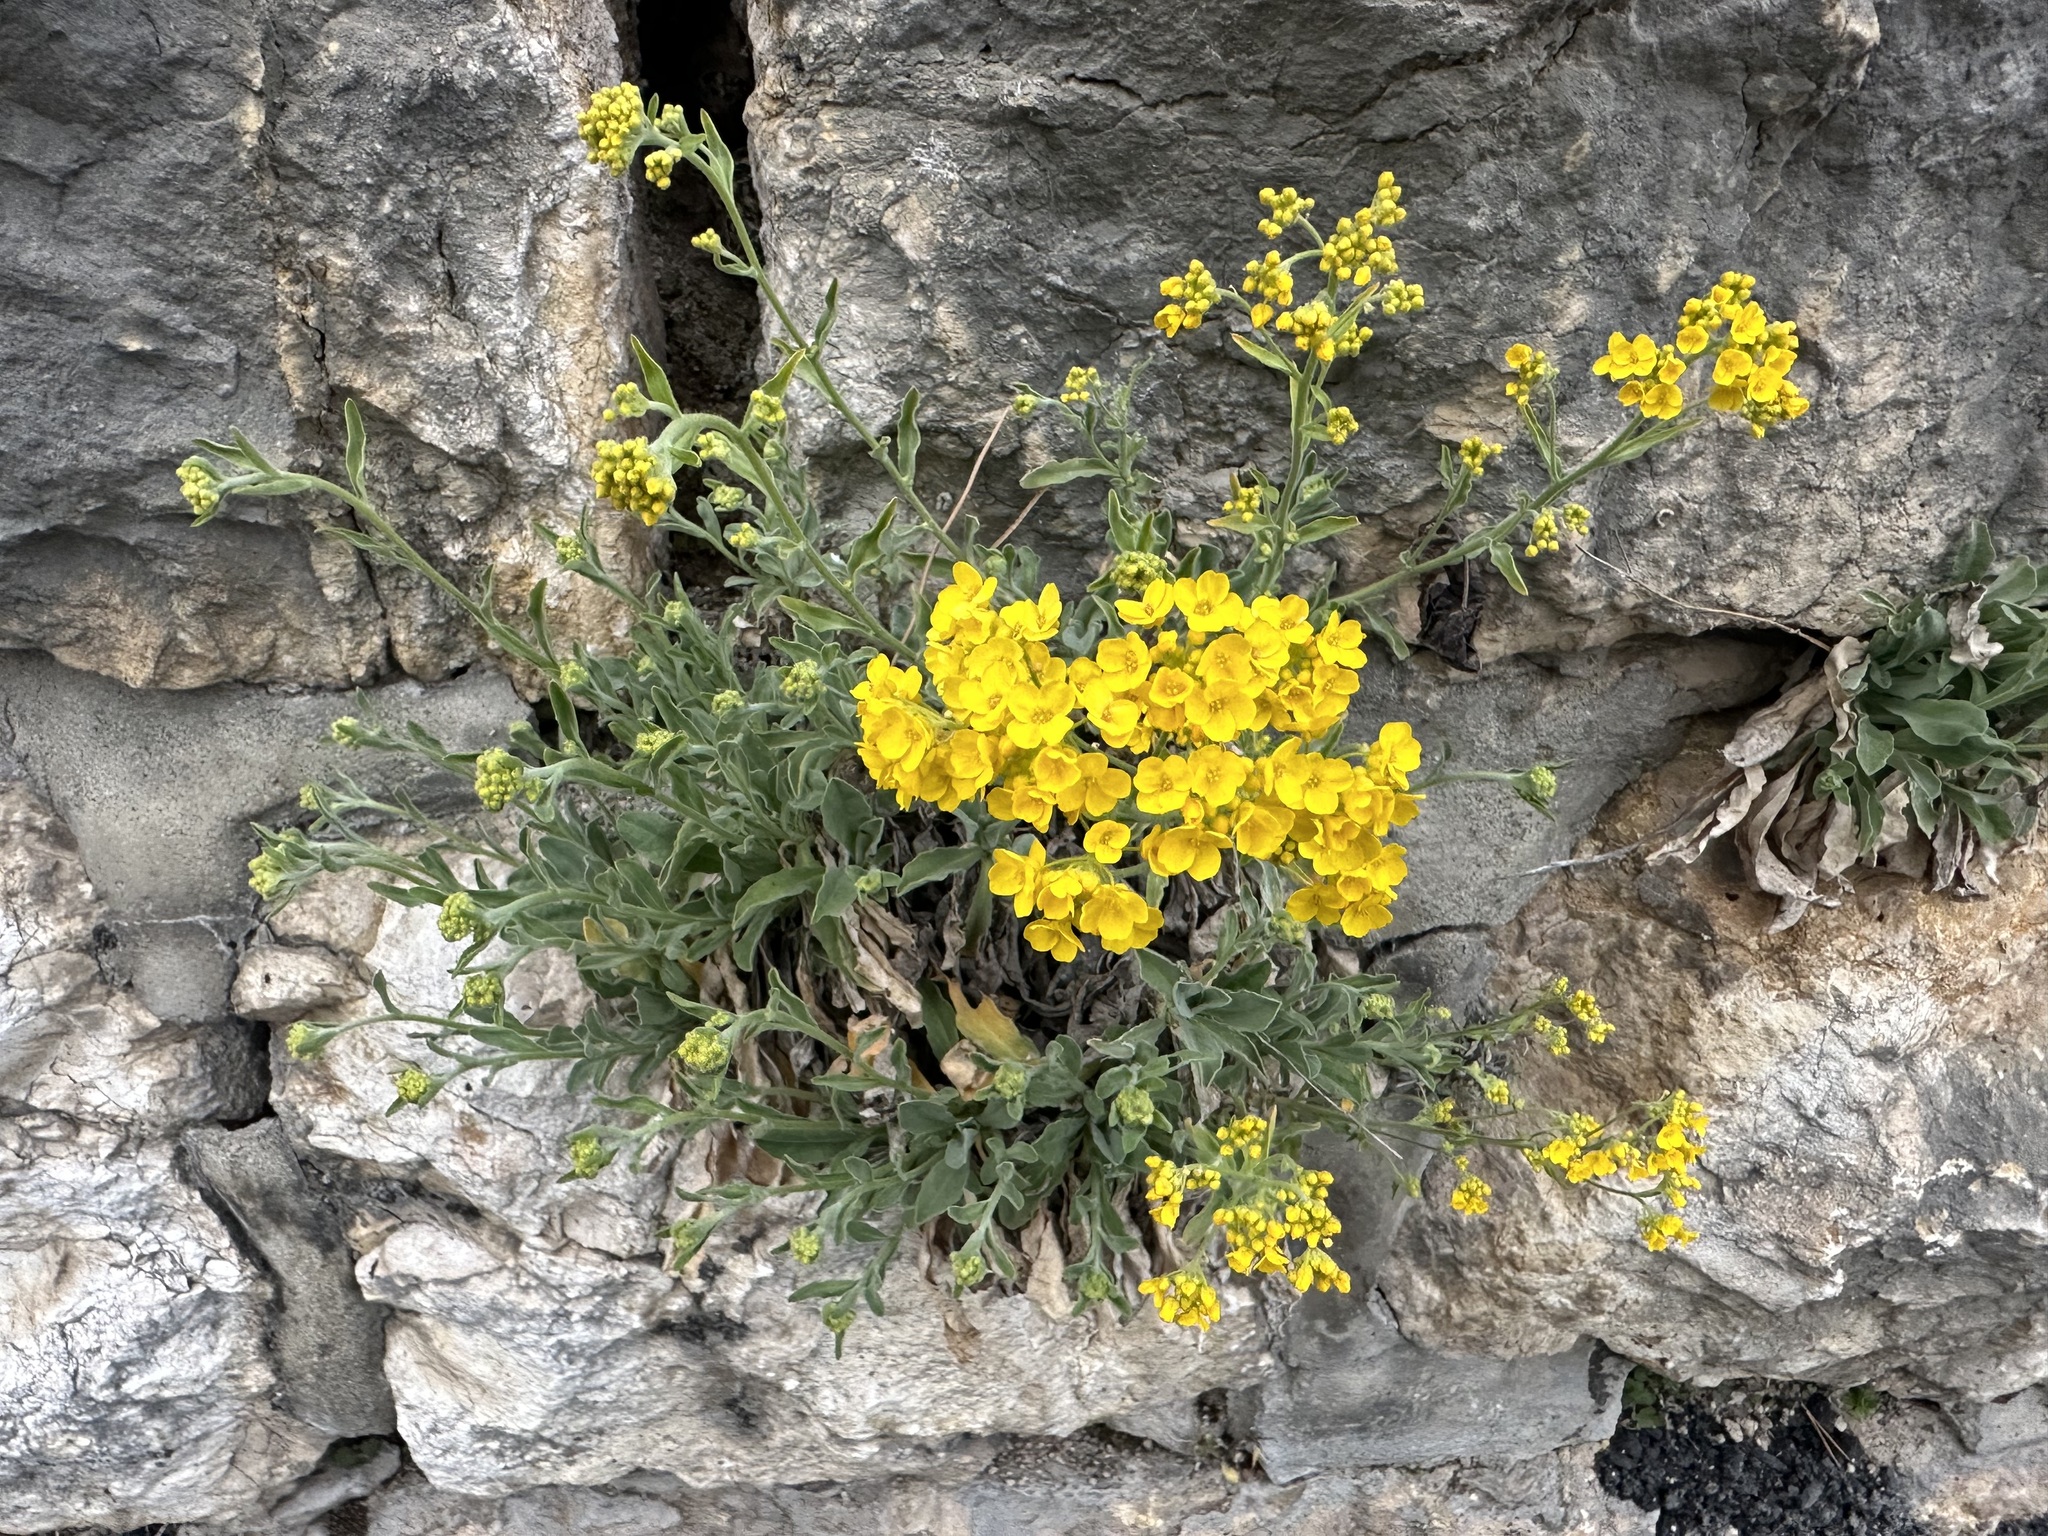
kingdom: Plantae
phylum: Tracheophyta
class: Magnoliopsida
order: Brassicales
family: Brassicaceae
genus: Aurinia
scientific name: Aurinia saxatilis
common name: Golden-tuft alyssum
